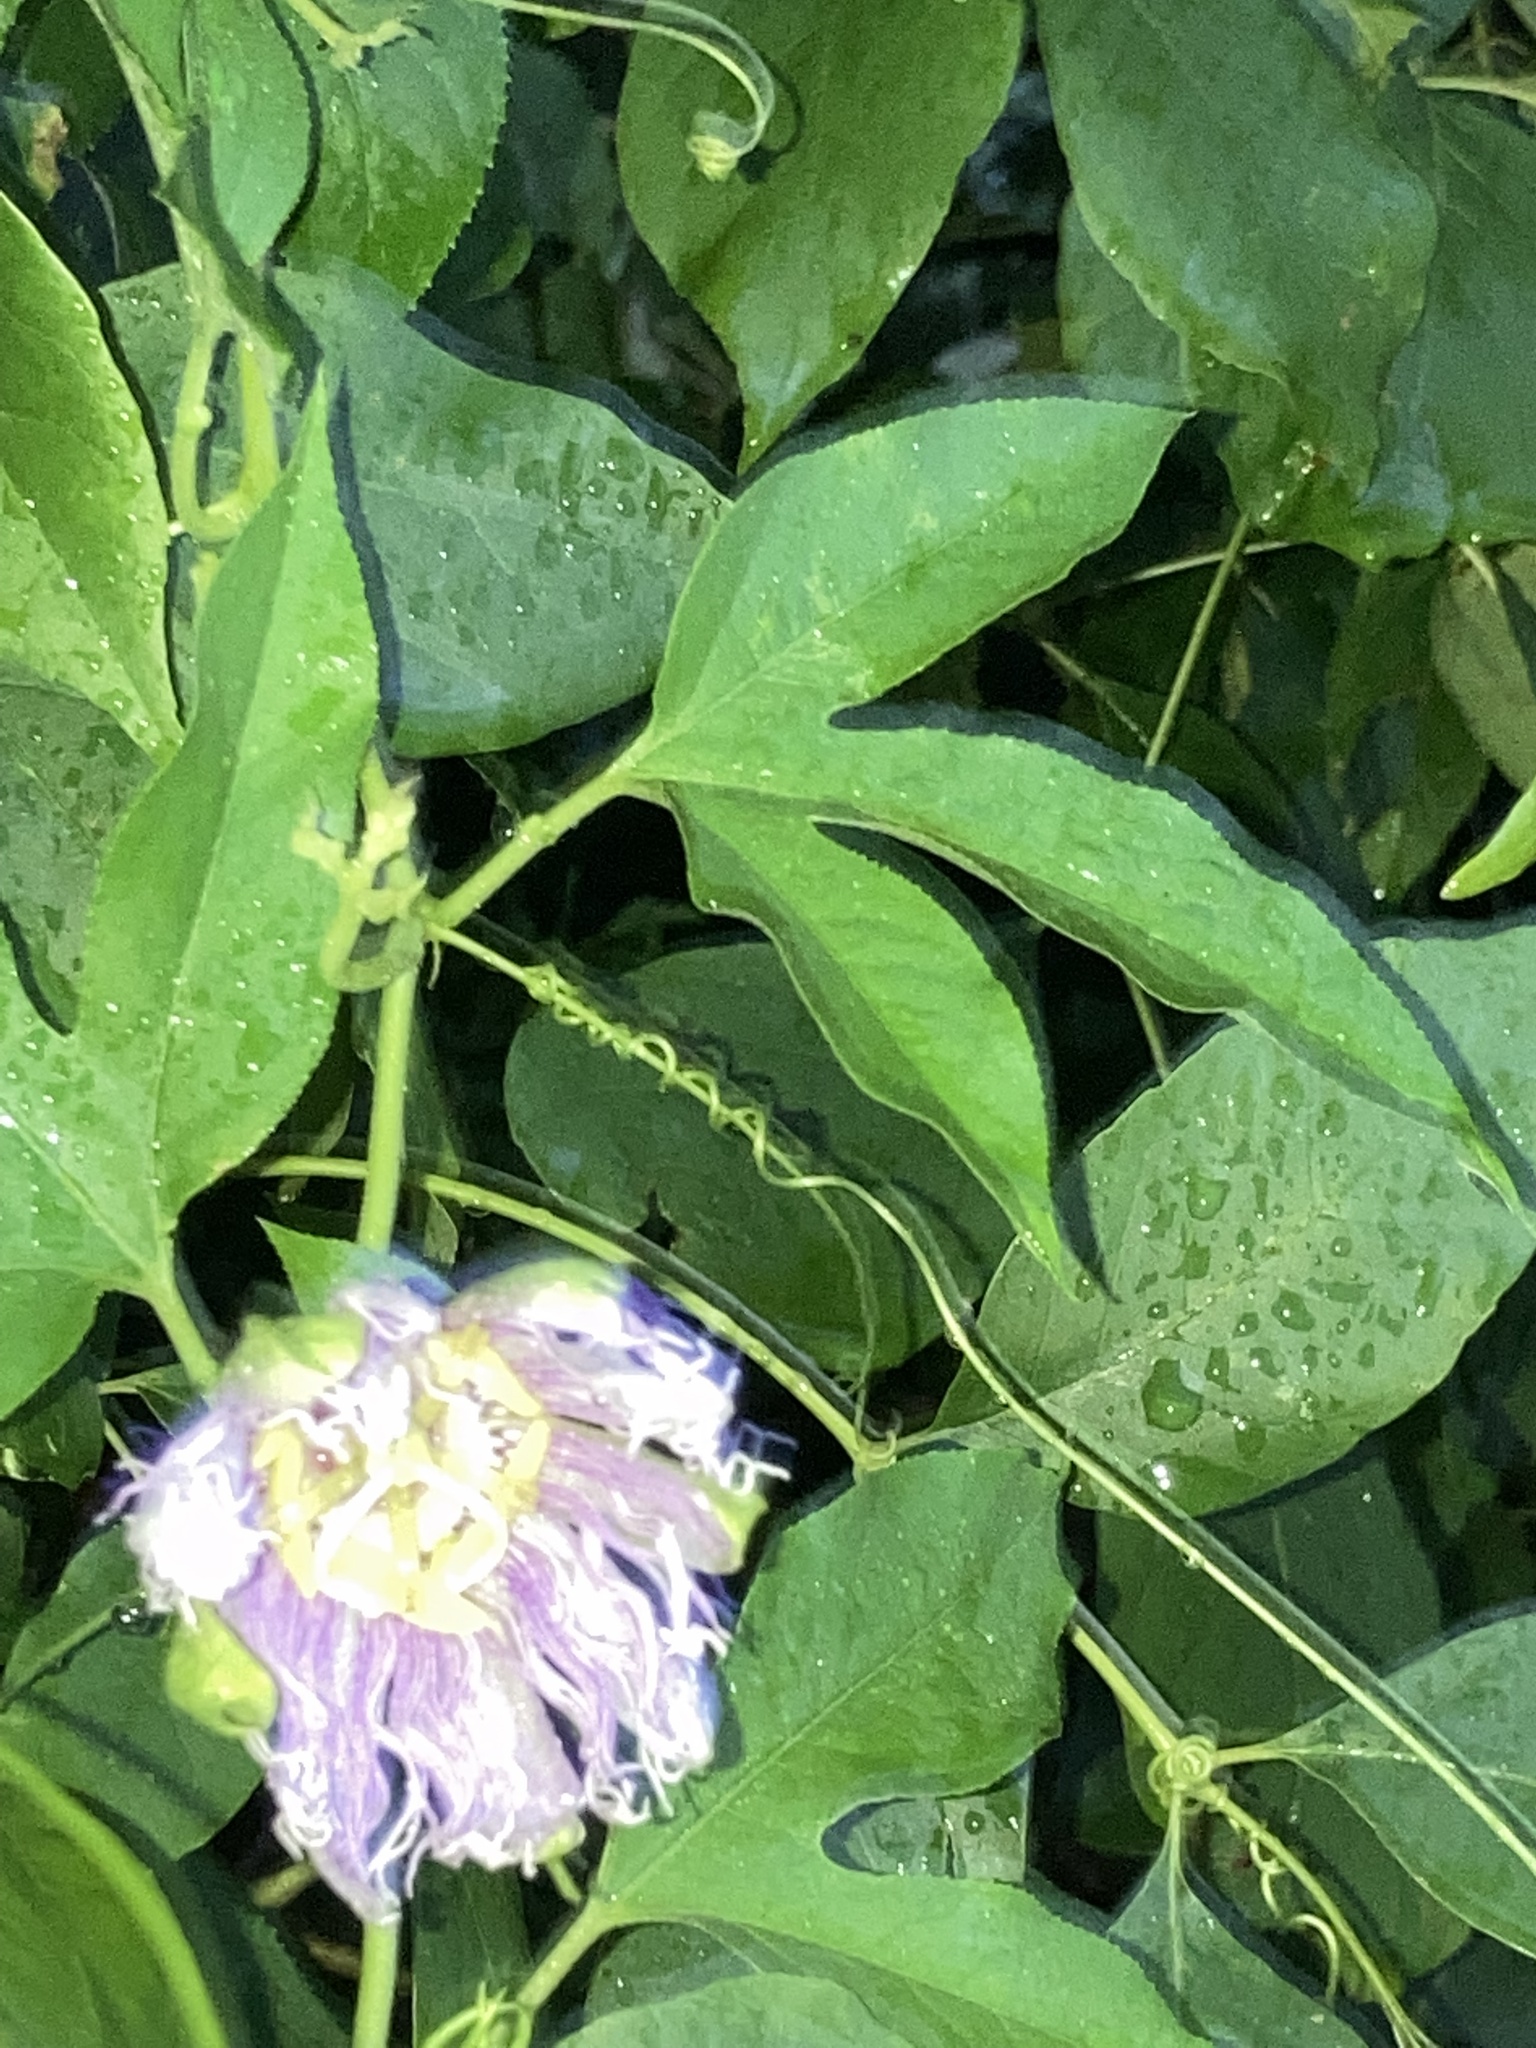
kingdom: Plantae
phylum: Tracheophyta
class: Magnoliopsida
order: Malpighiales
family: Passifloraceae
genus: Passiflora
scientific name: Passiflora incarnata
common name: Apricot-vine
